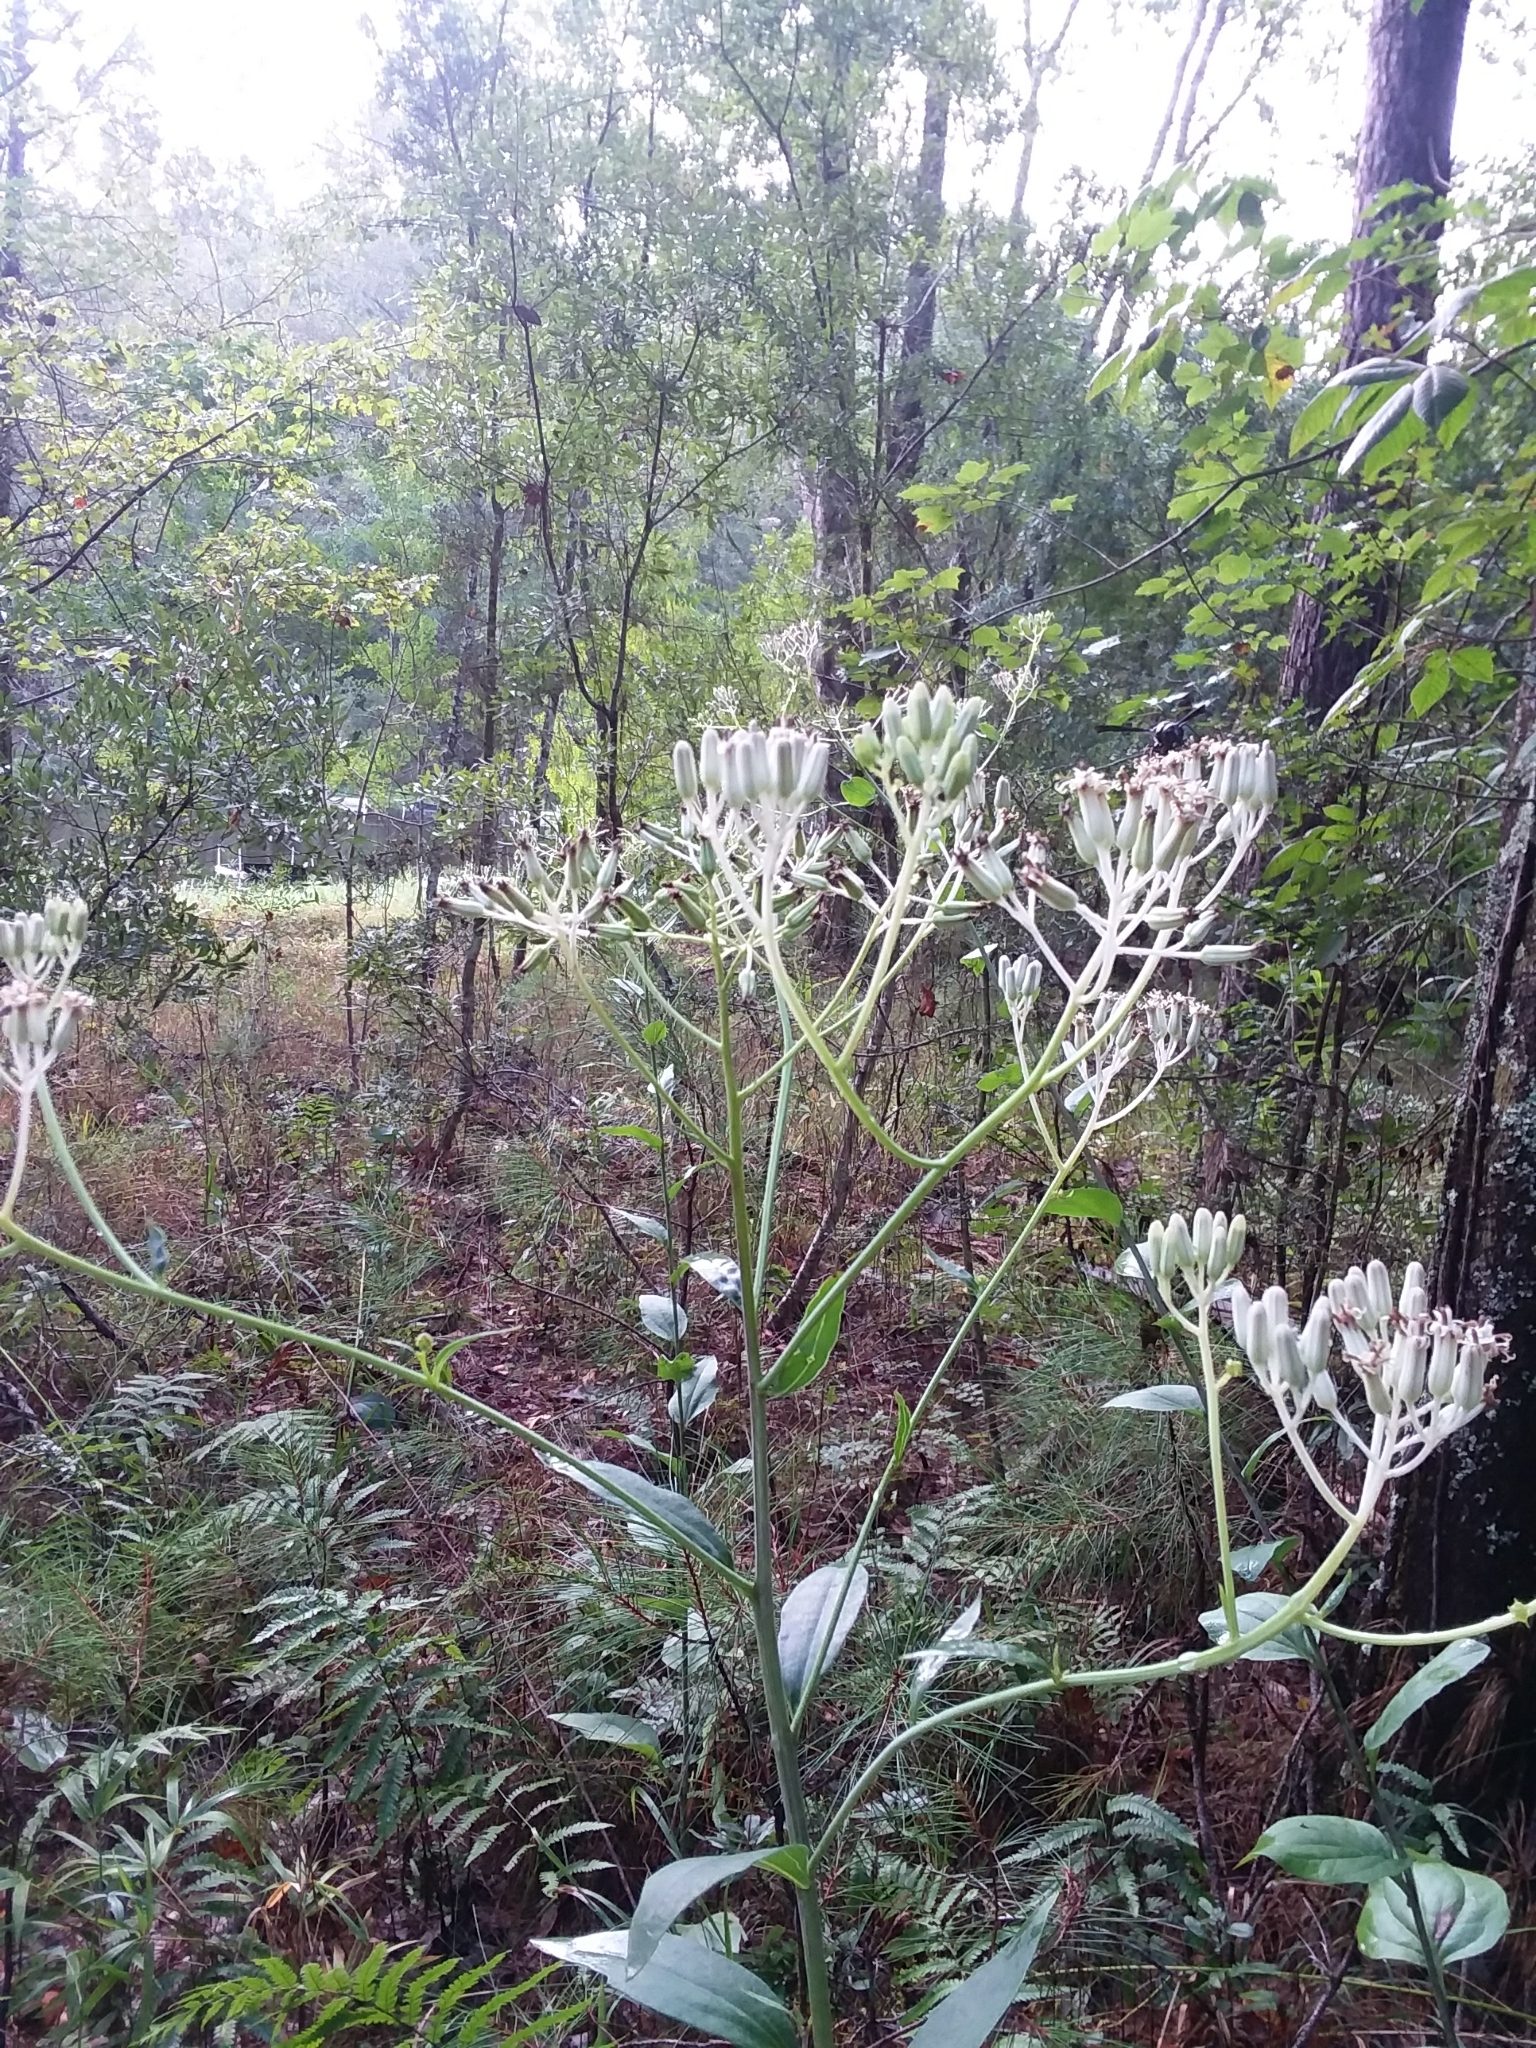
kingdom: Plantae
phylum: Tracheophyta
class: Magnoliopsida
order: Asterales
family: Asteraceae
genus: Arnoglossum
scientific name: Arnoglossum ovatum
